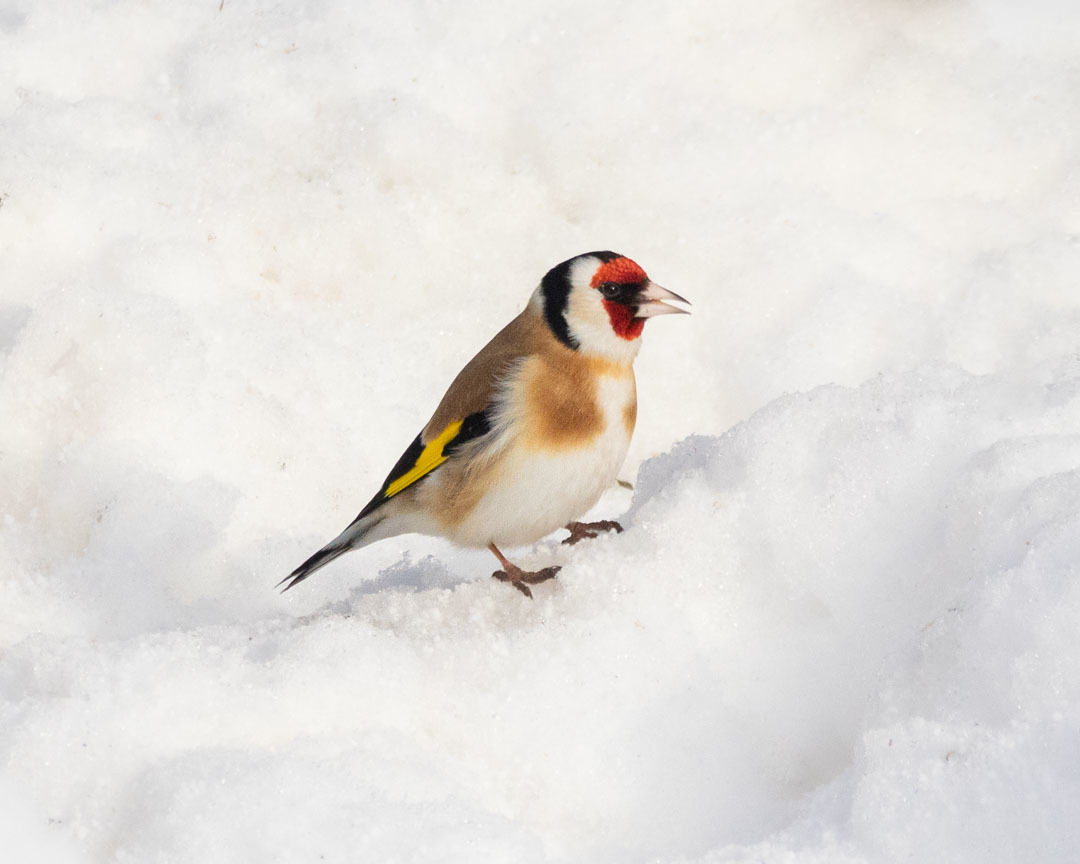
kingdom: Animalia
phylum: Chordata
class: Aves
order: Passeriformes
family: Fringillidae
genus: Carduelis
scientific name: Carduelis carduelis
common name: European goldfinch
